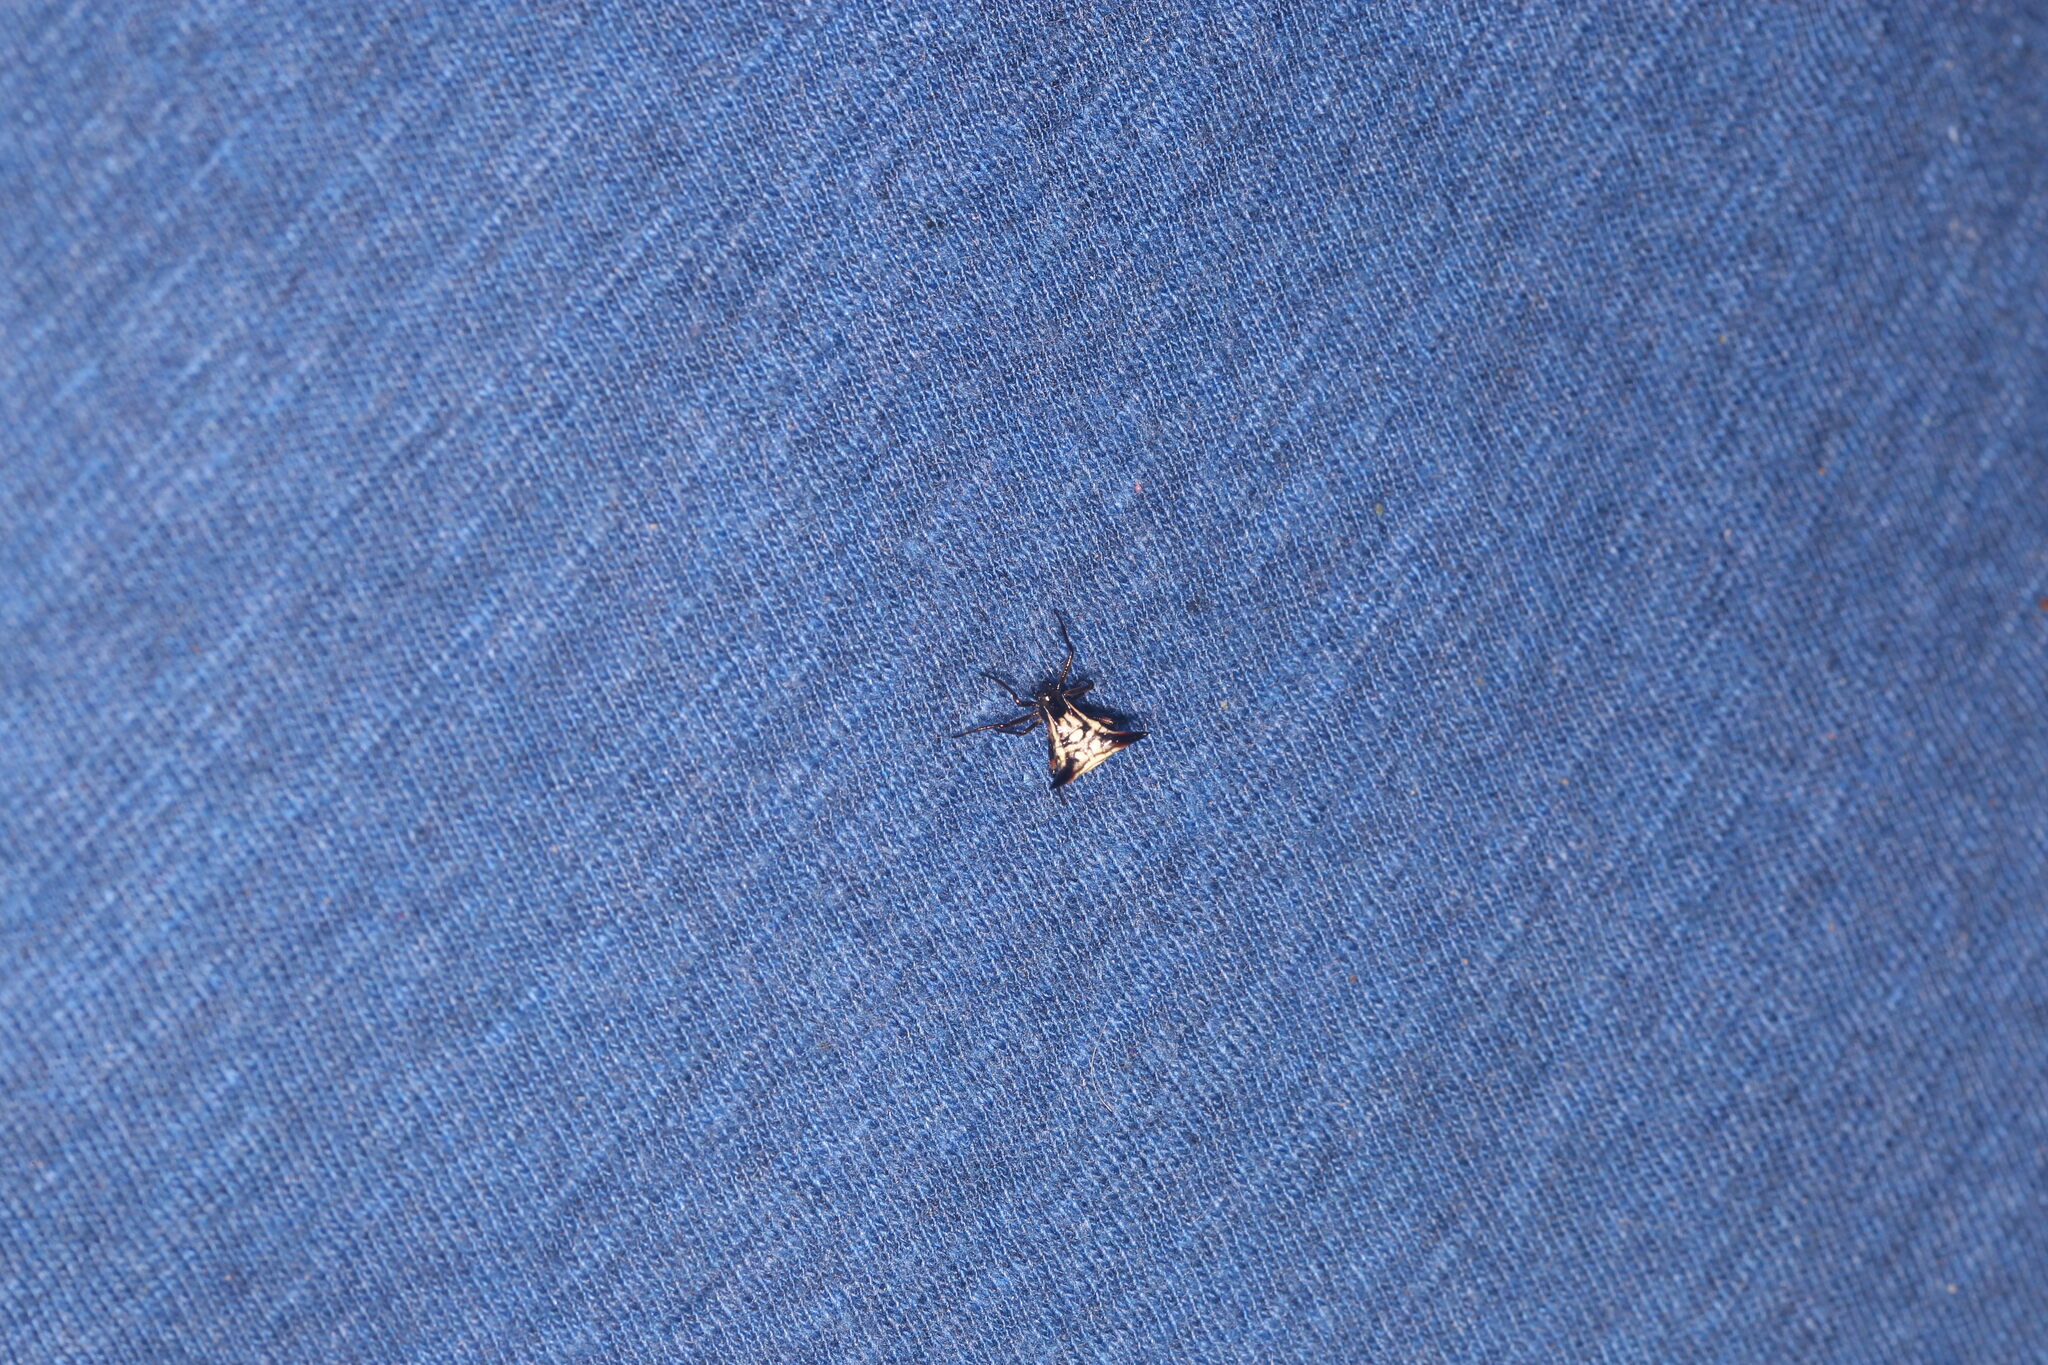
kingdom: Animalia
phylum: Arthropoda
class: Arachnida
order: Araneae
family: Araneidae
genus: Micrathena
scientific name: Micrathena triangularispinosa
